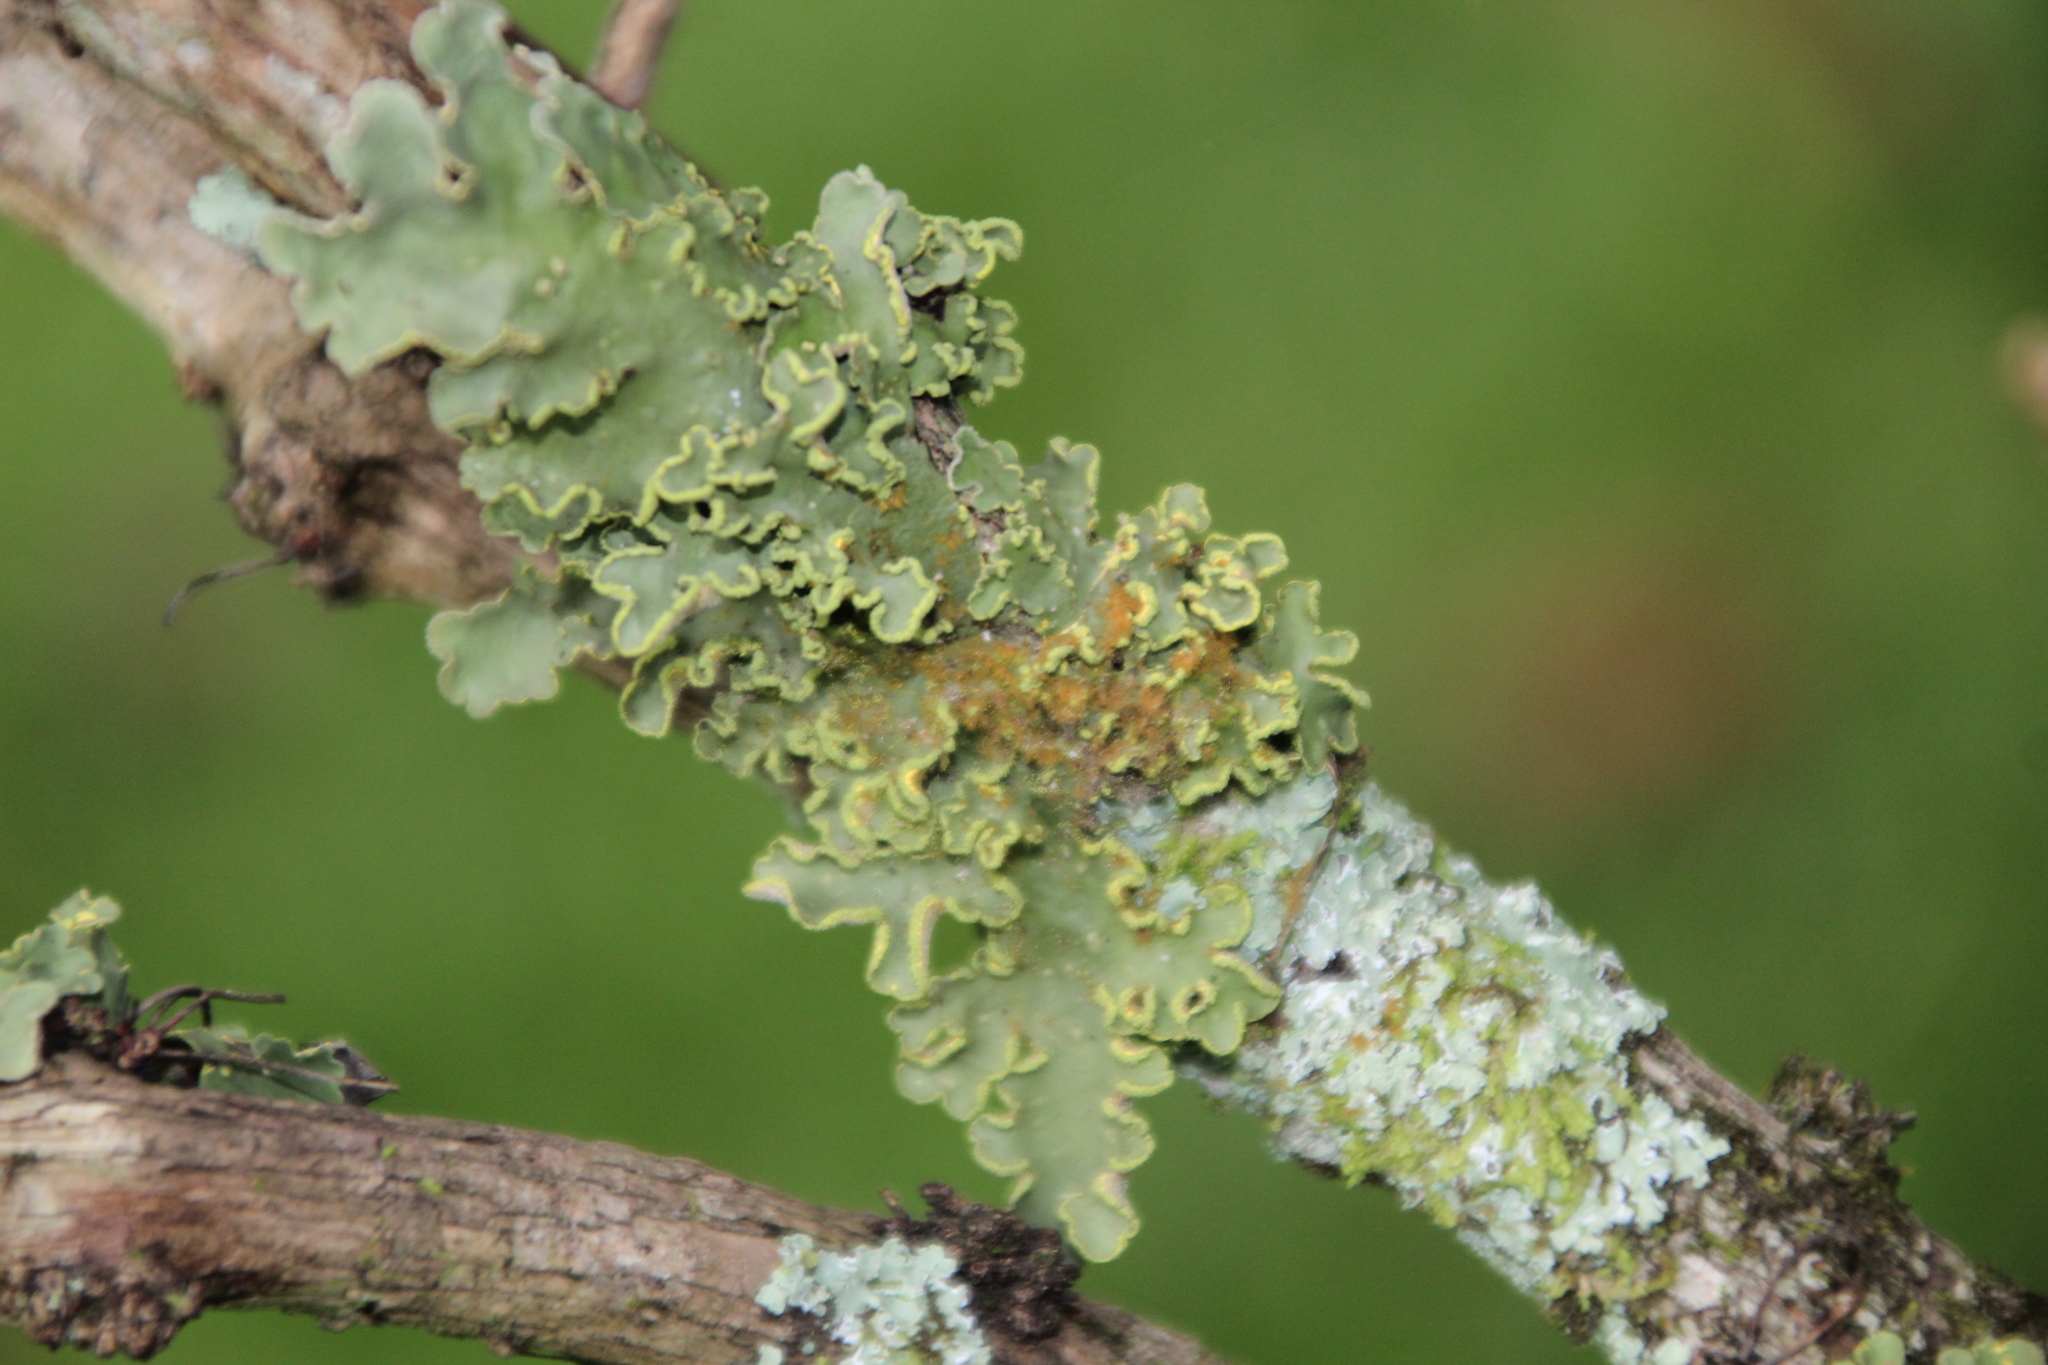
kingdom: Fungi
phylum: Ascomycota
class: Lecanoromycetes
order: Peltigerales
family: Lobariaceae
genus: Pseudocyphellaria
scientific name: Pseudocyphellaria aurata
